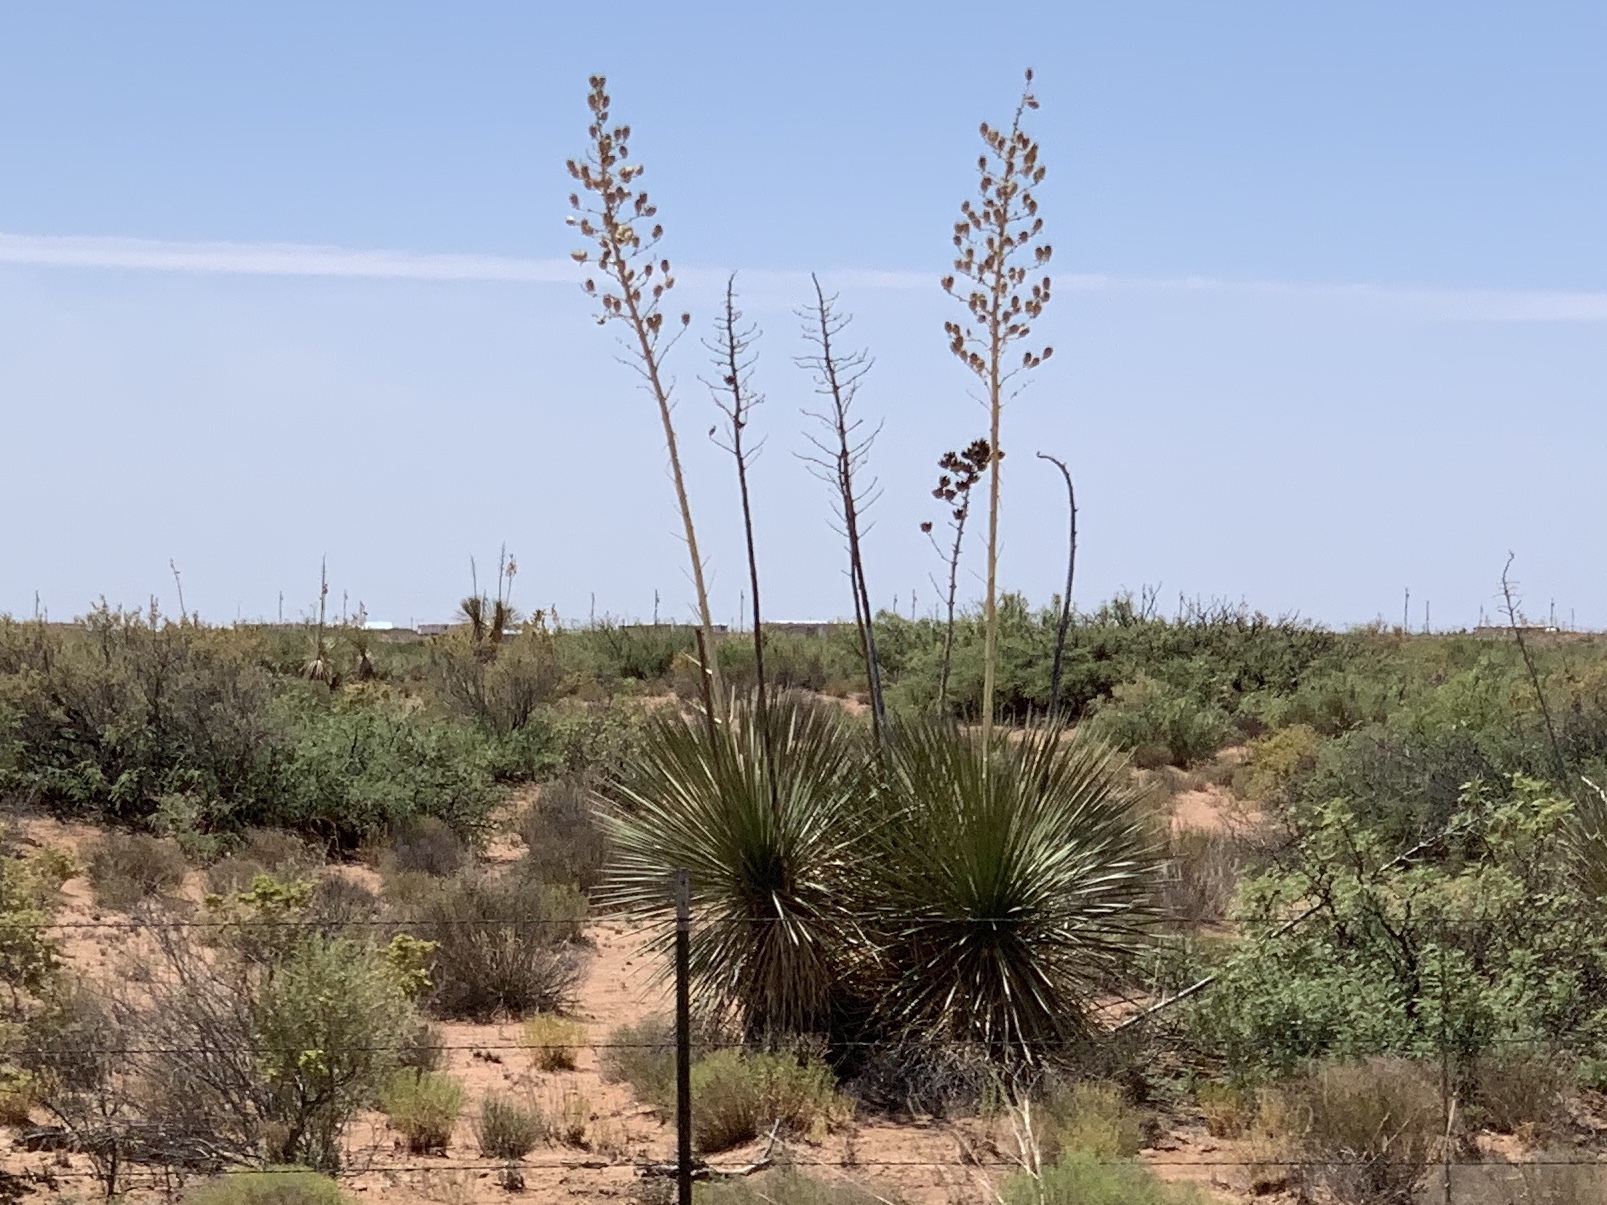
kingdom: Plantae
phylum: Tracheophyta
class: Liliopsida
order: Asparagales
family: Asparagaceae
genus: Yucca
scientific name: Yucca elata
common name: Palmella
